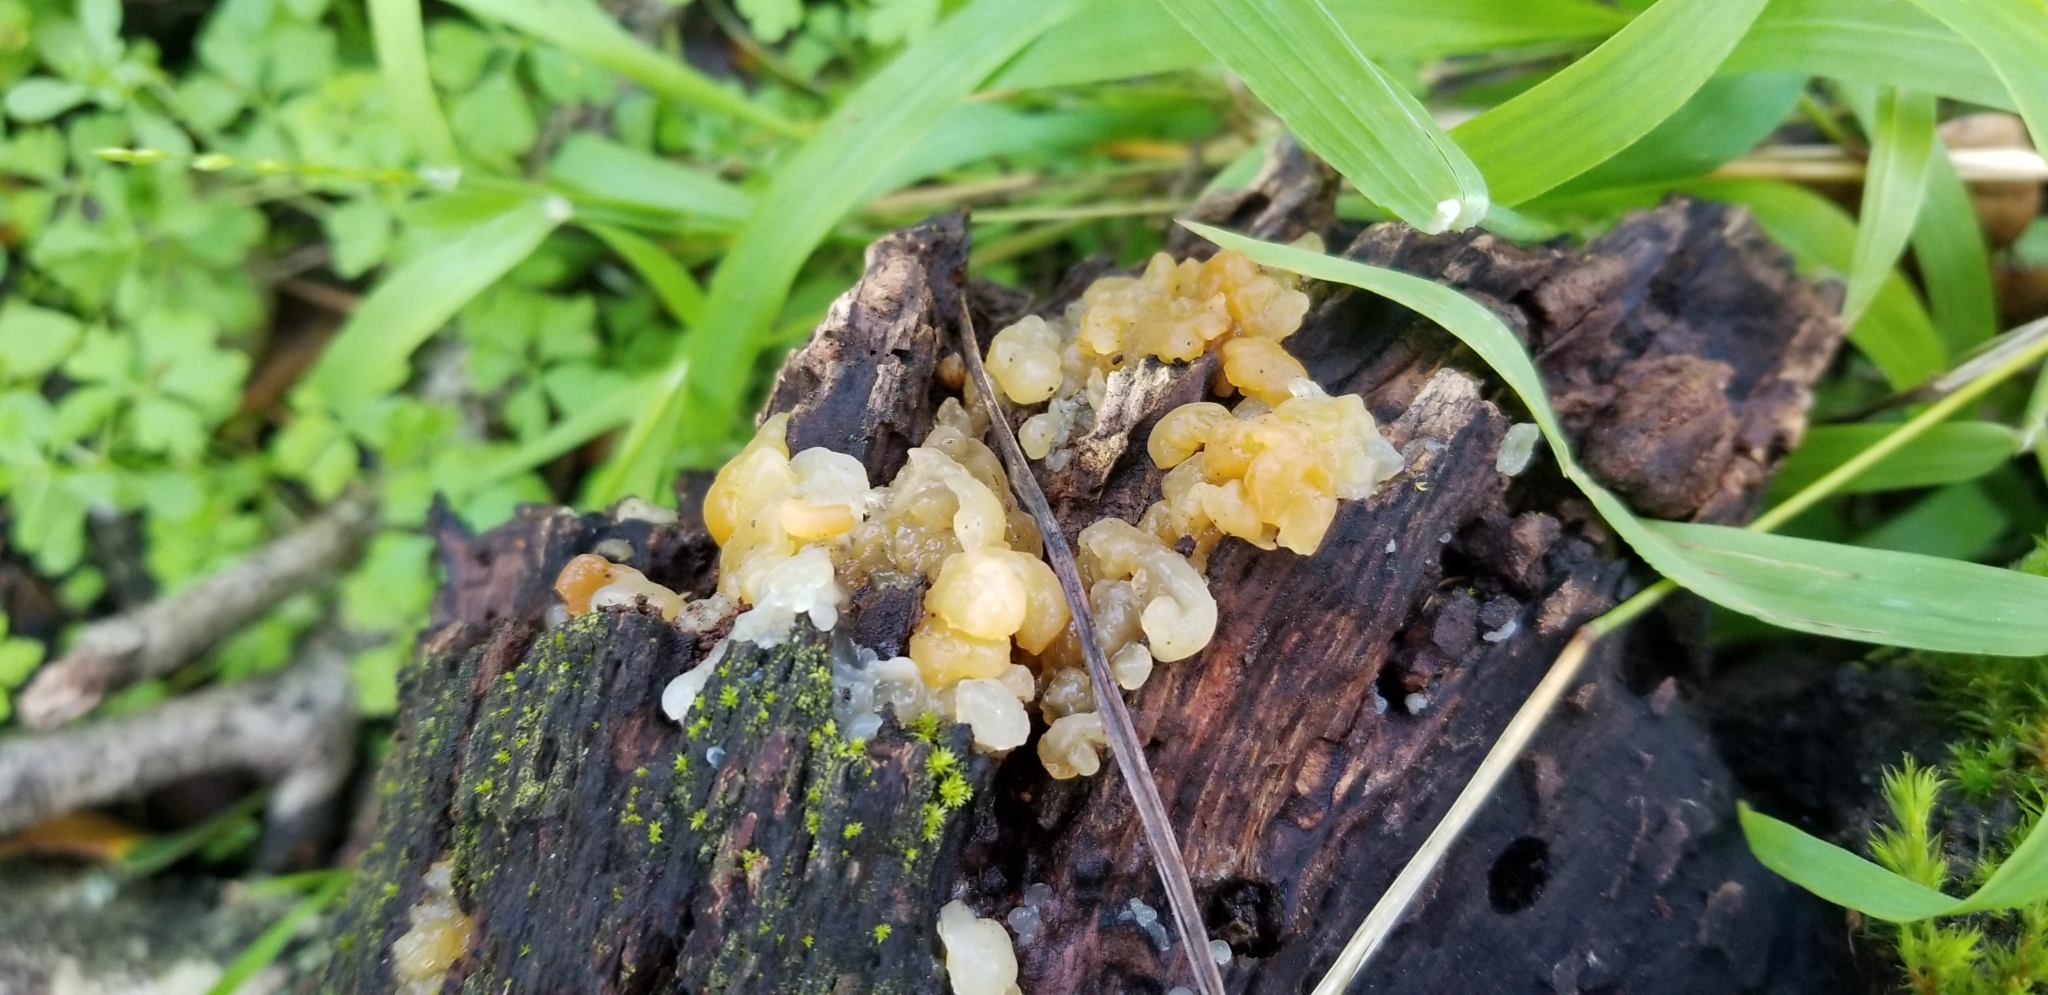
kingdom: Fungi
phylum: Basidiomycota
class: Tremellomycetes
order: Tremellales
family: Tremellaceae
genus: Tremella
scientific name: Tremella mesenterica
